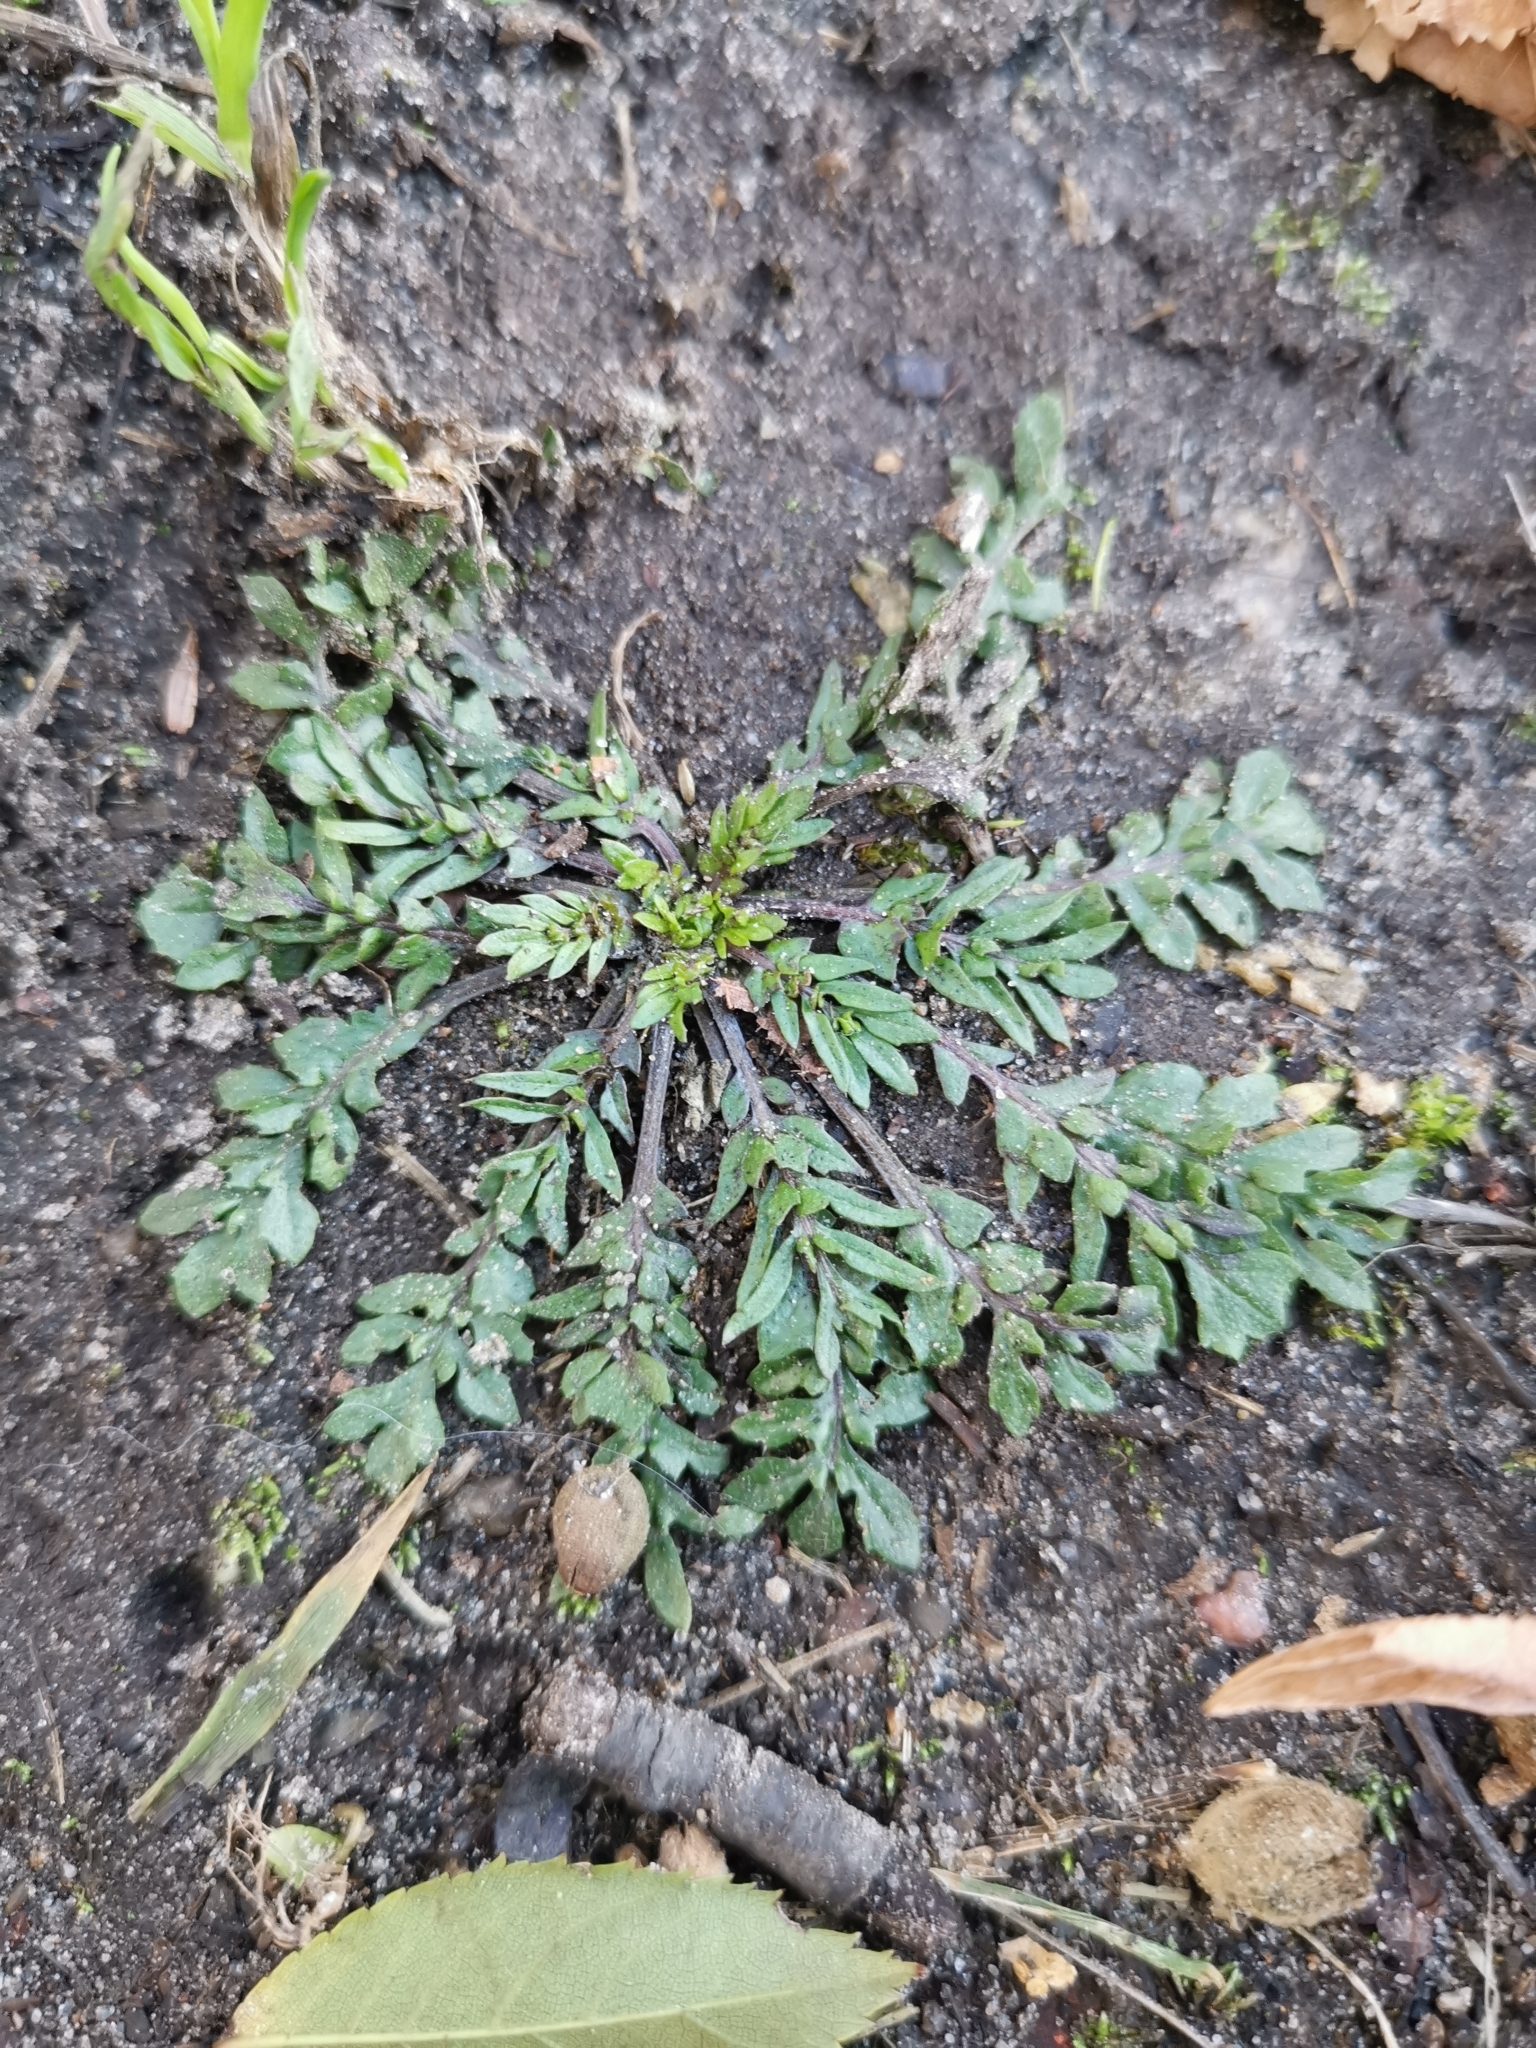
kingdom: Plantae
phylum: Tracheophyta
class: Magnoliopsida
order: Brassicales
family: Brassicaceae
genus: Capsella
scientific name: Capsella bursa-pastoris
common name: Shepherd's purse
